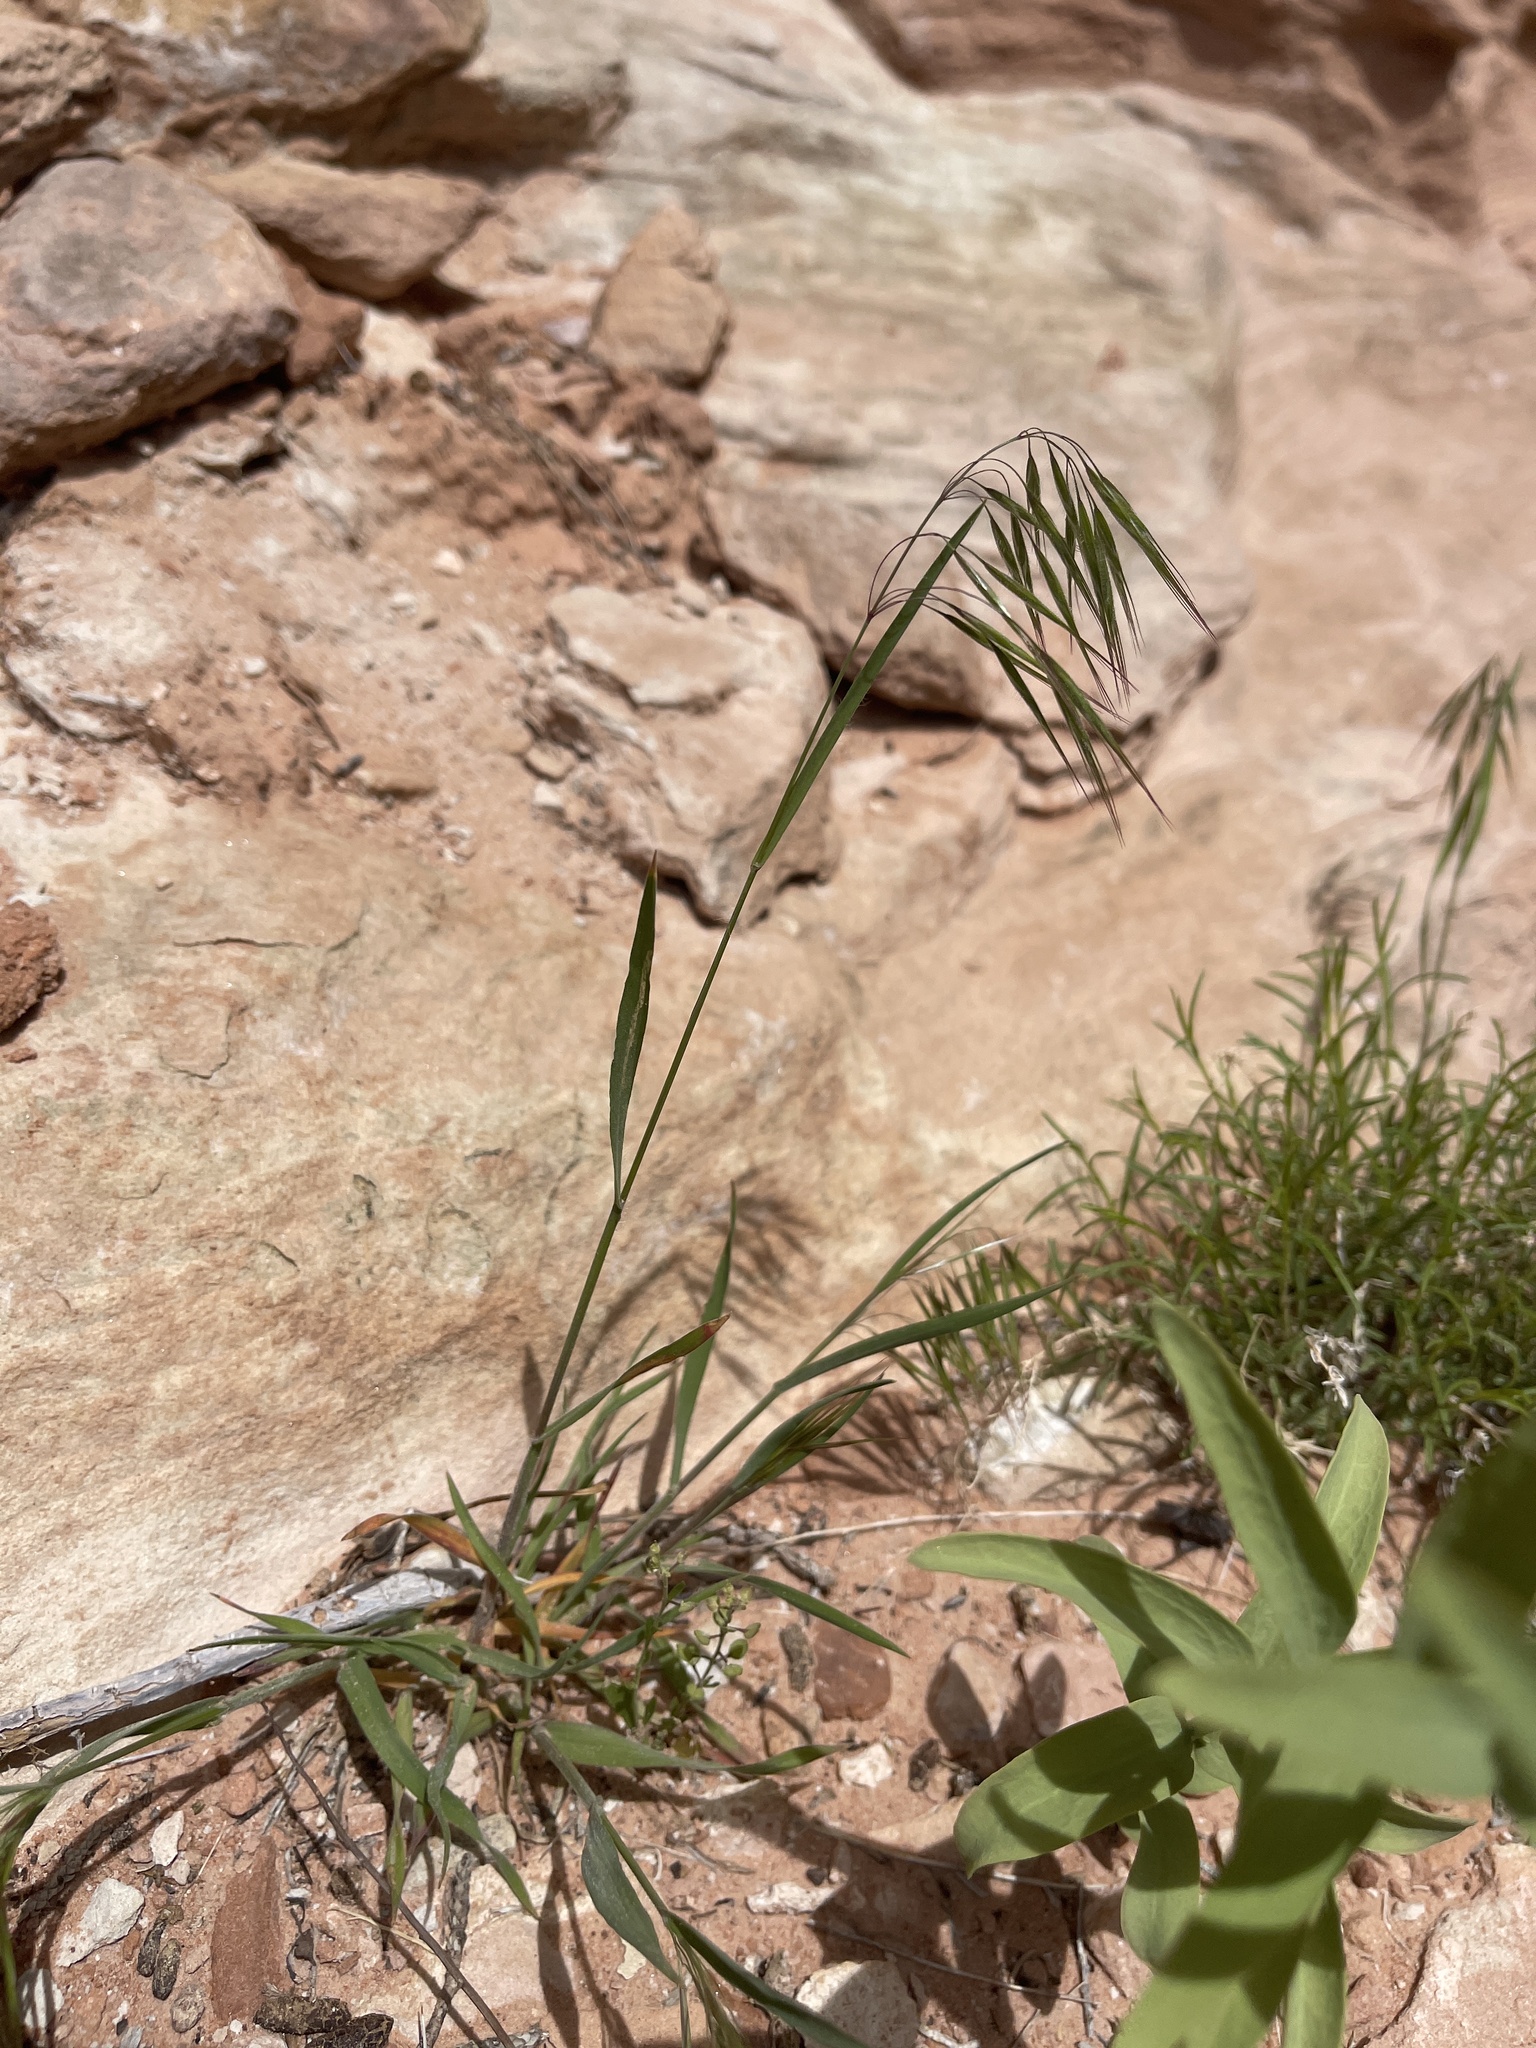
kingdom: Plantae
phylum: Tracheophyta
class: Liliopsida
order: Poales
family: Poaceae
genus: Bromus
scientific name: Bromus tectorum
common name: Cheatgrass
